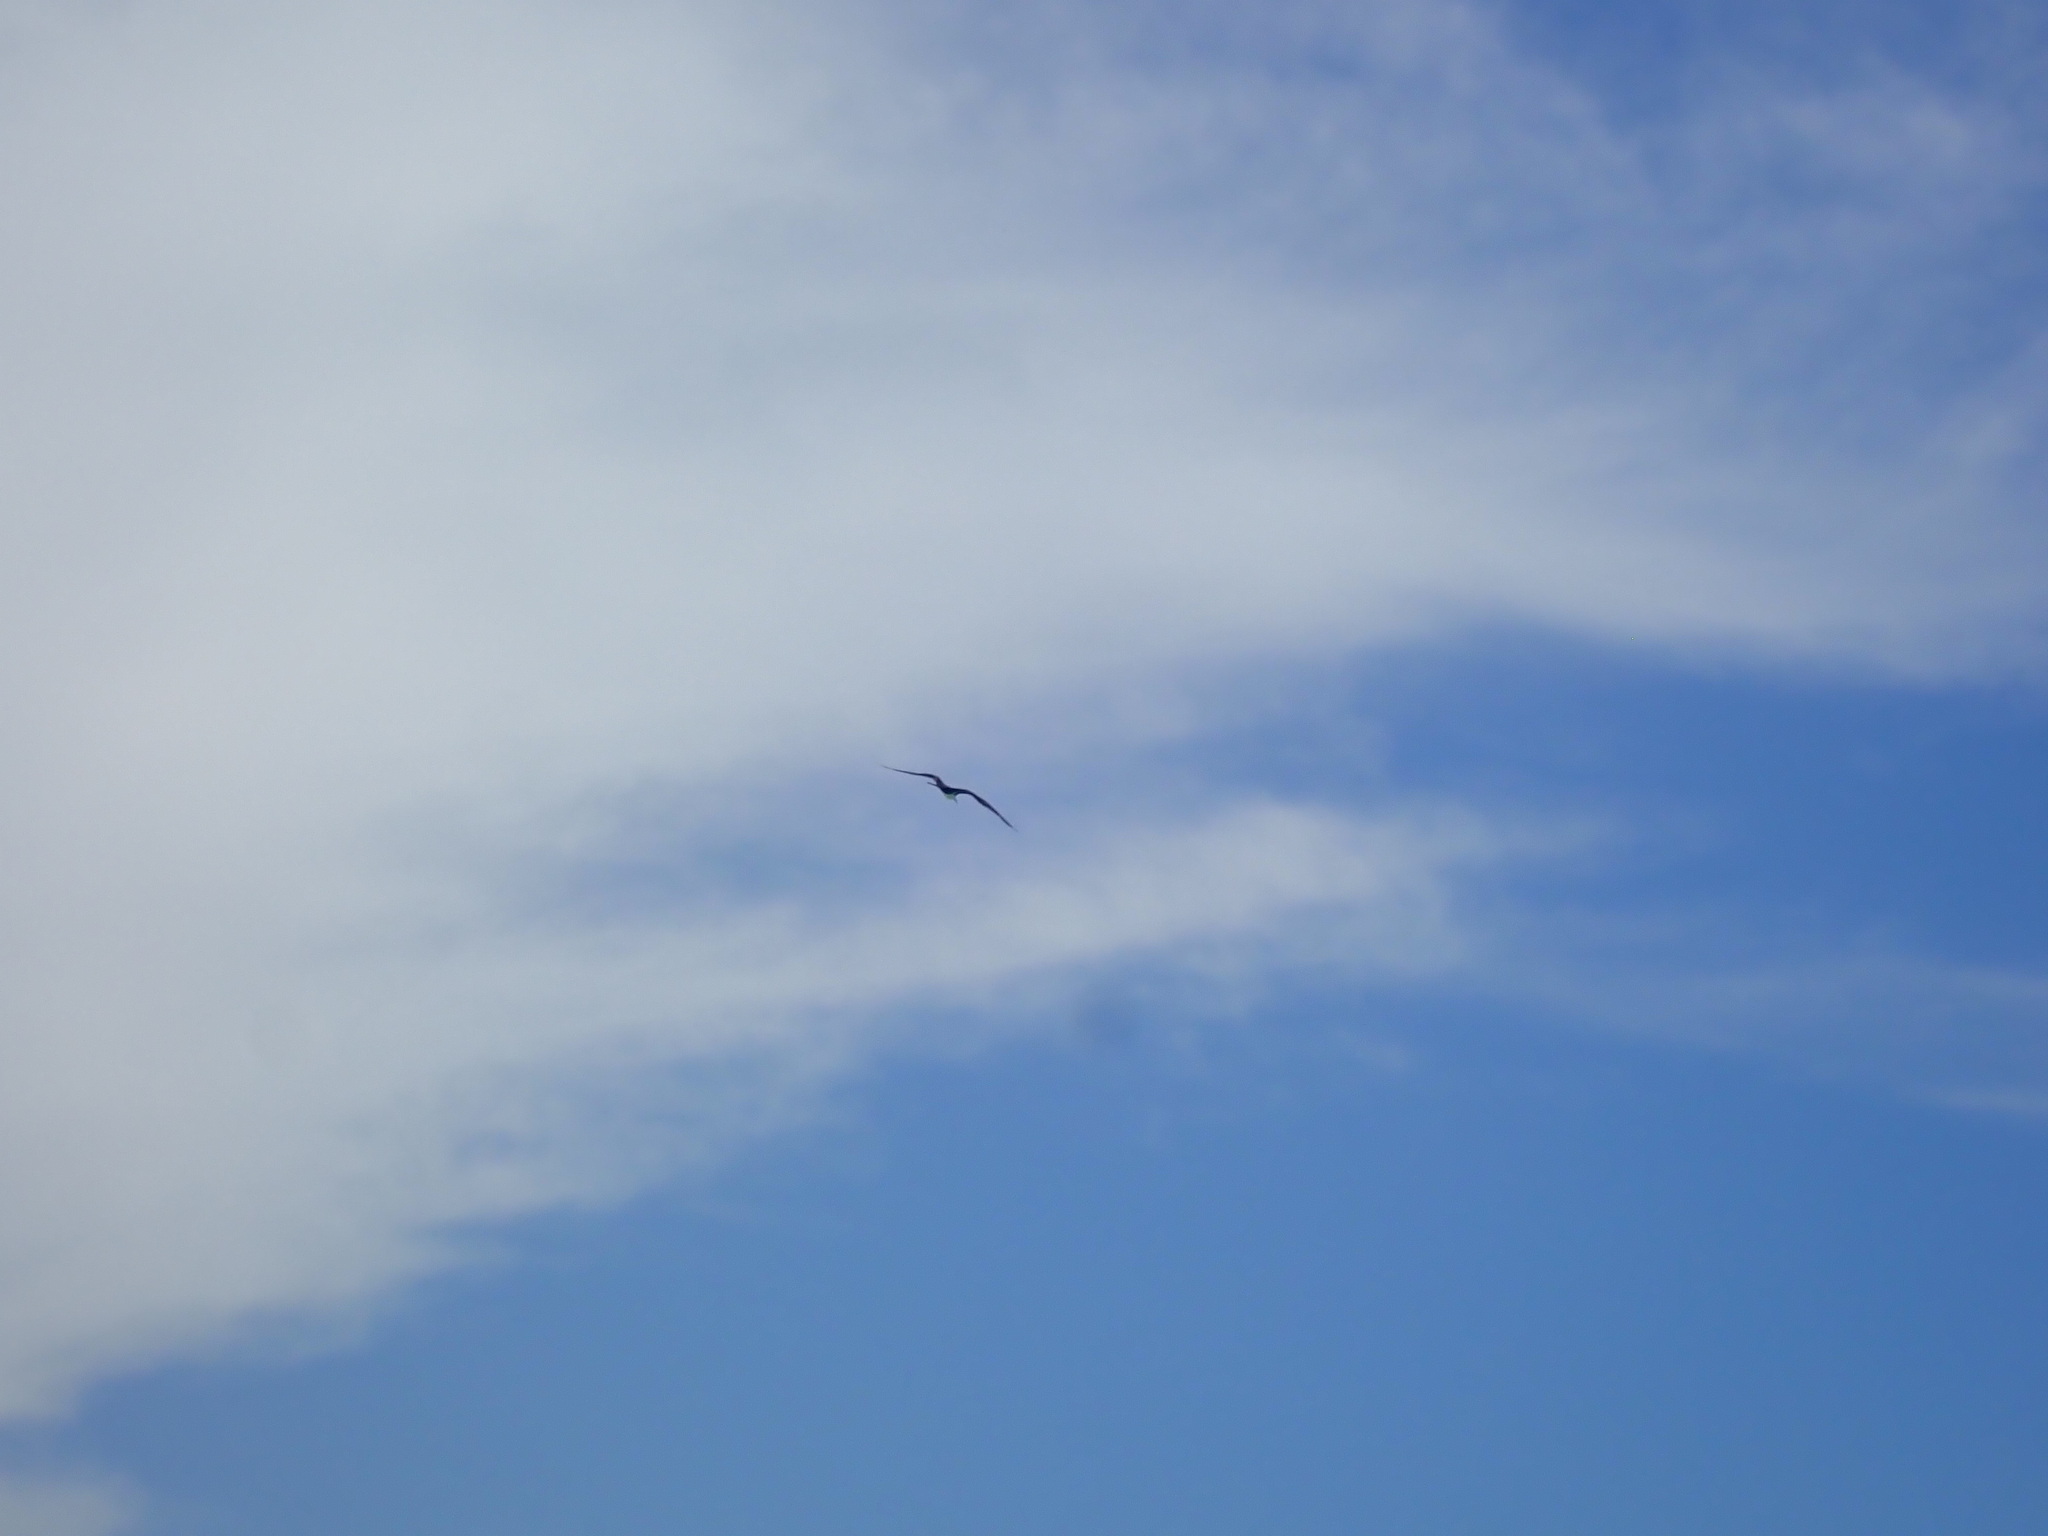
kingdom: Animalia
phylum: Chordata
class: Aves
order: Suliformes
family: Fregatidae
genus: Fregata
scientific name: Fregata magnificens
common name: Magnificent frigatebird
